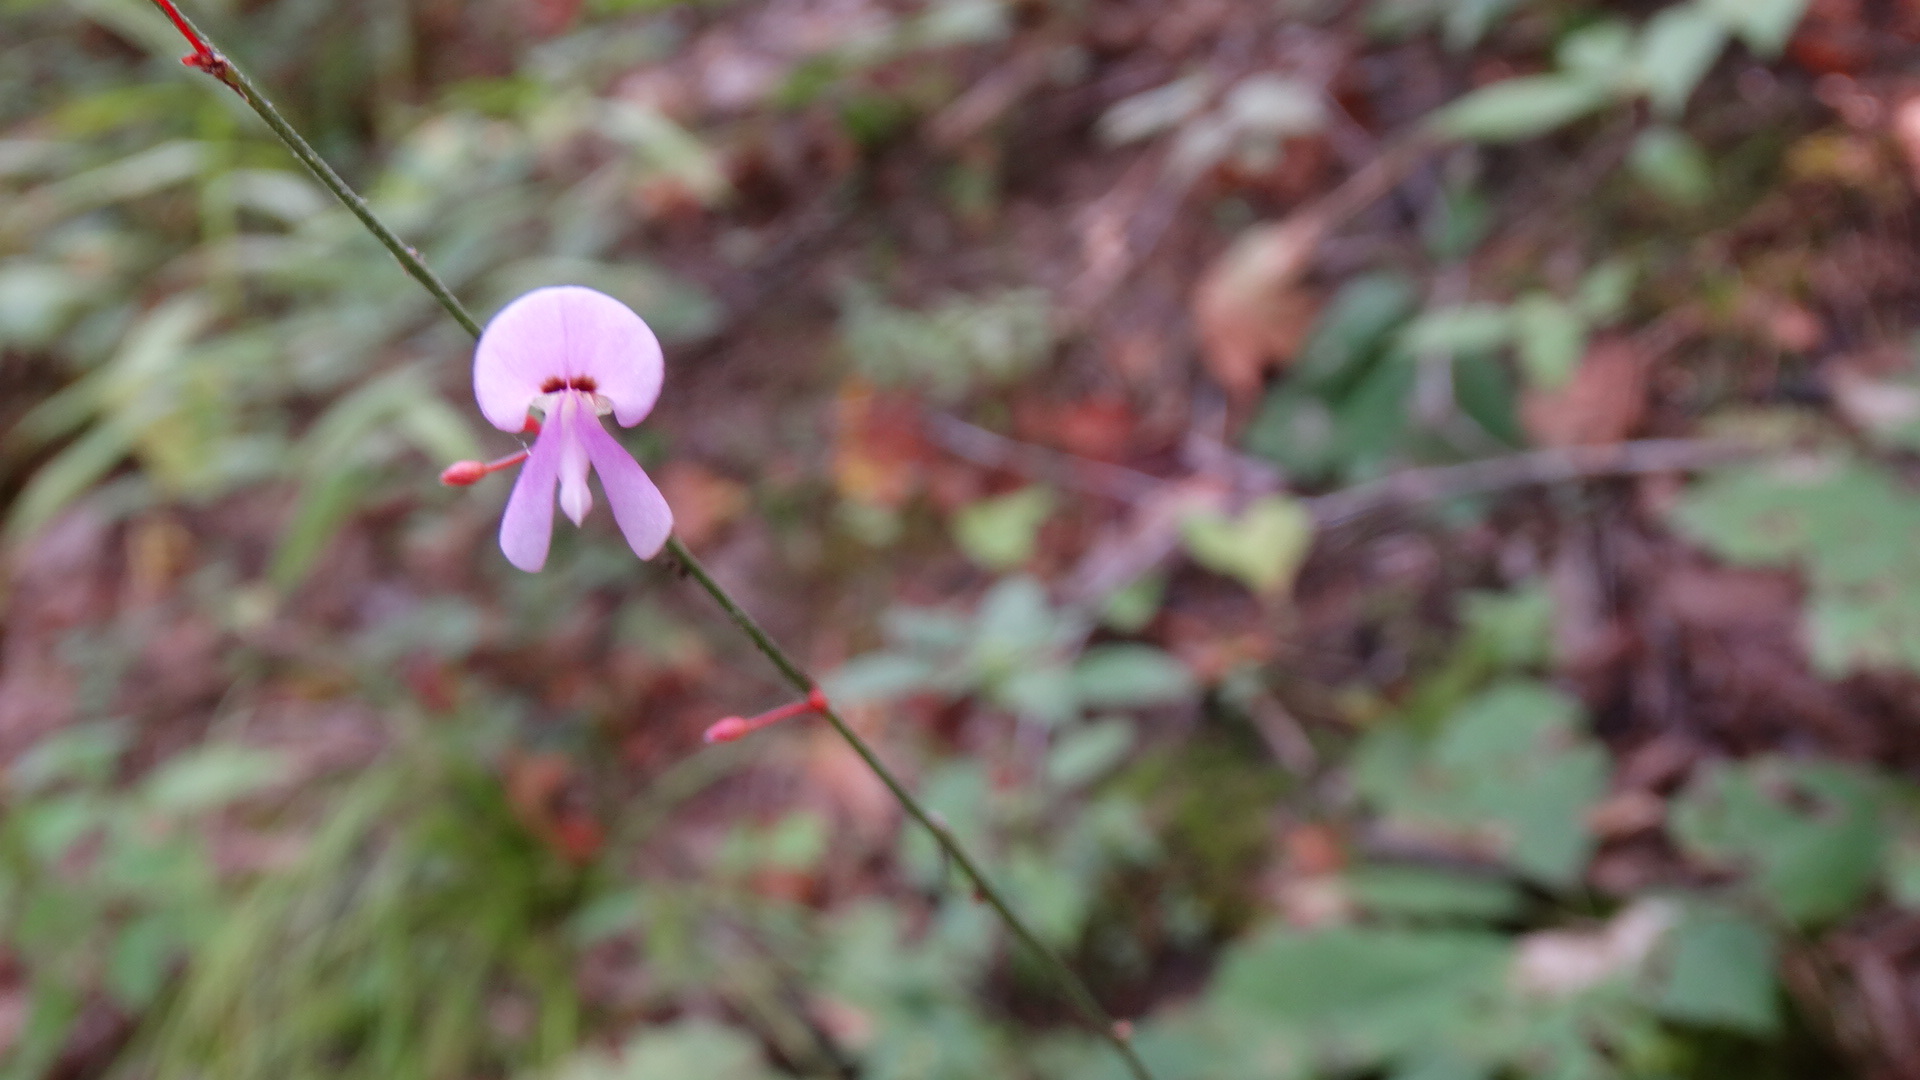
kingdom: Plantae
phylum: Tracheophyta
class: Magnoliopsida
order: Fabales
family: Fabaceae
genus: Hylodesmum
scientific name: Hylodesmum nudiflorum
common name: Bare-stemmed tick-trefoil
